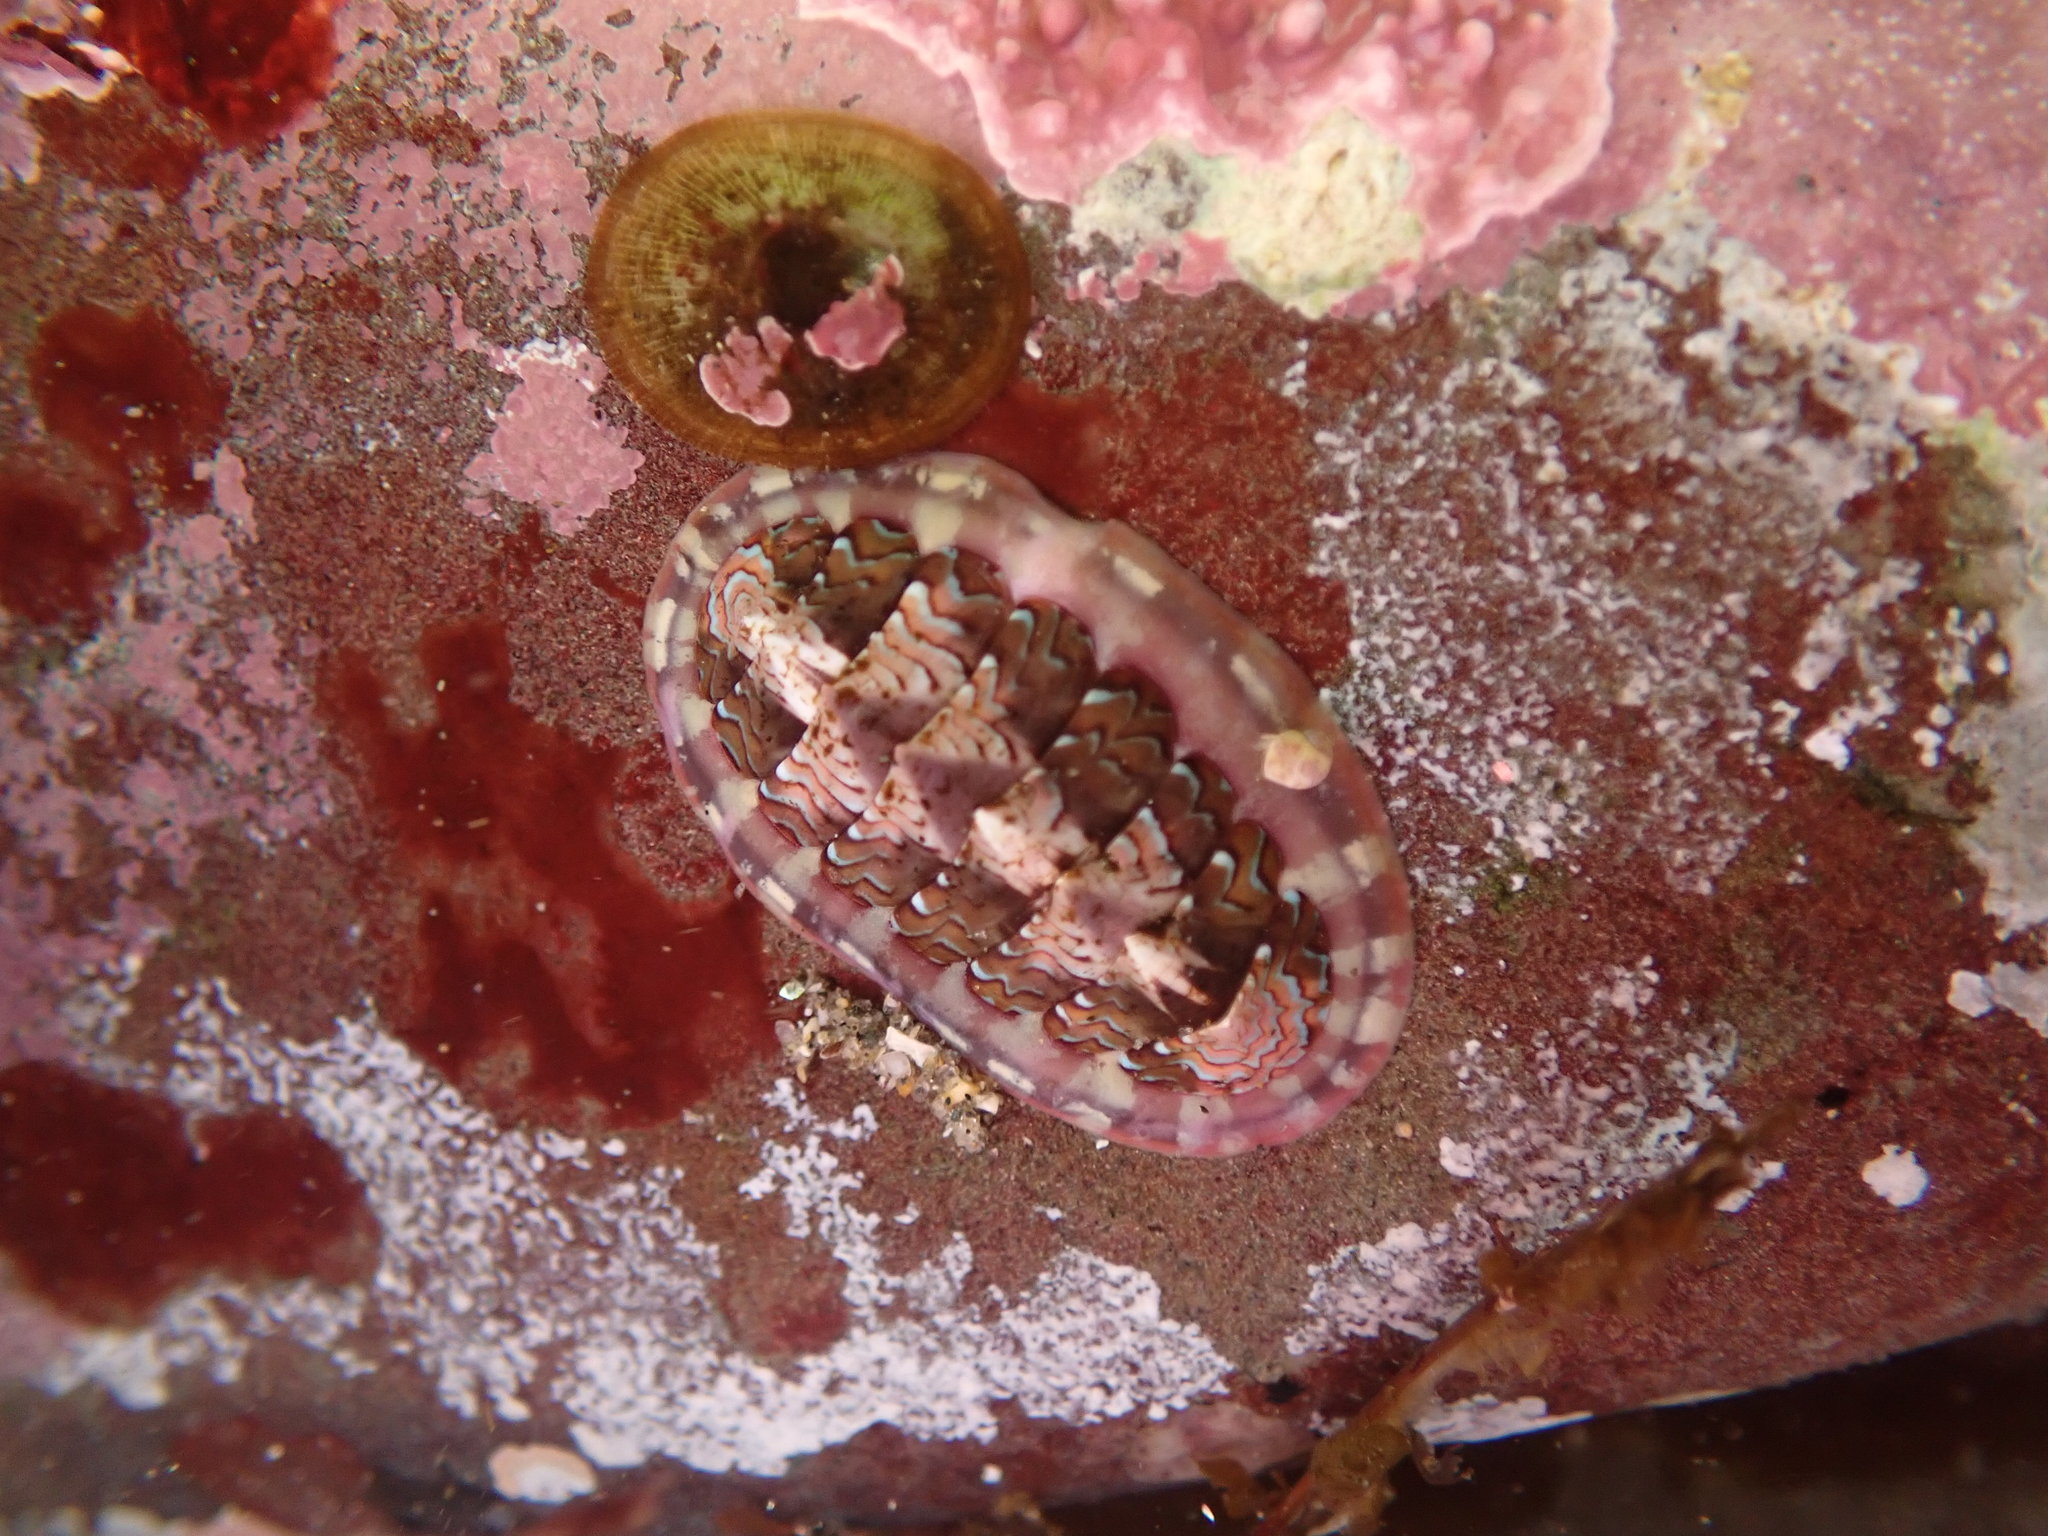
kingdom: Animalia
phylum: Mollusca
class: Polyplacophora
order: Chitonida
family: Tonicellidae
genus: Tonicella
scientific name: Tonicella lokii
